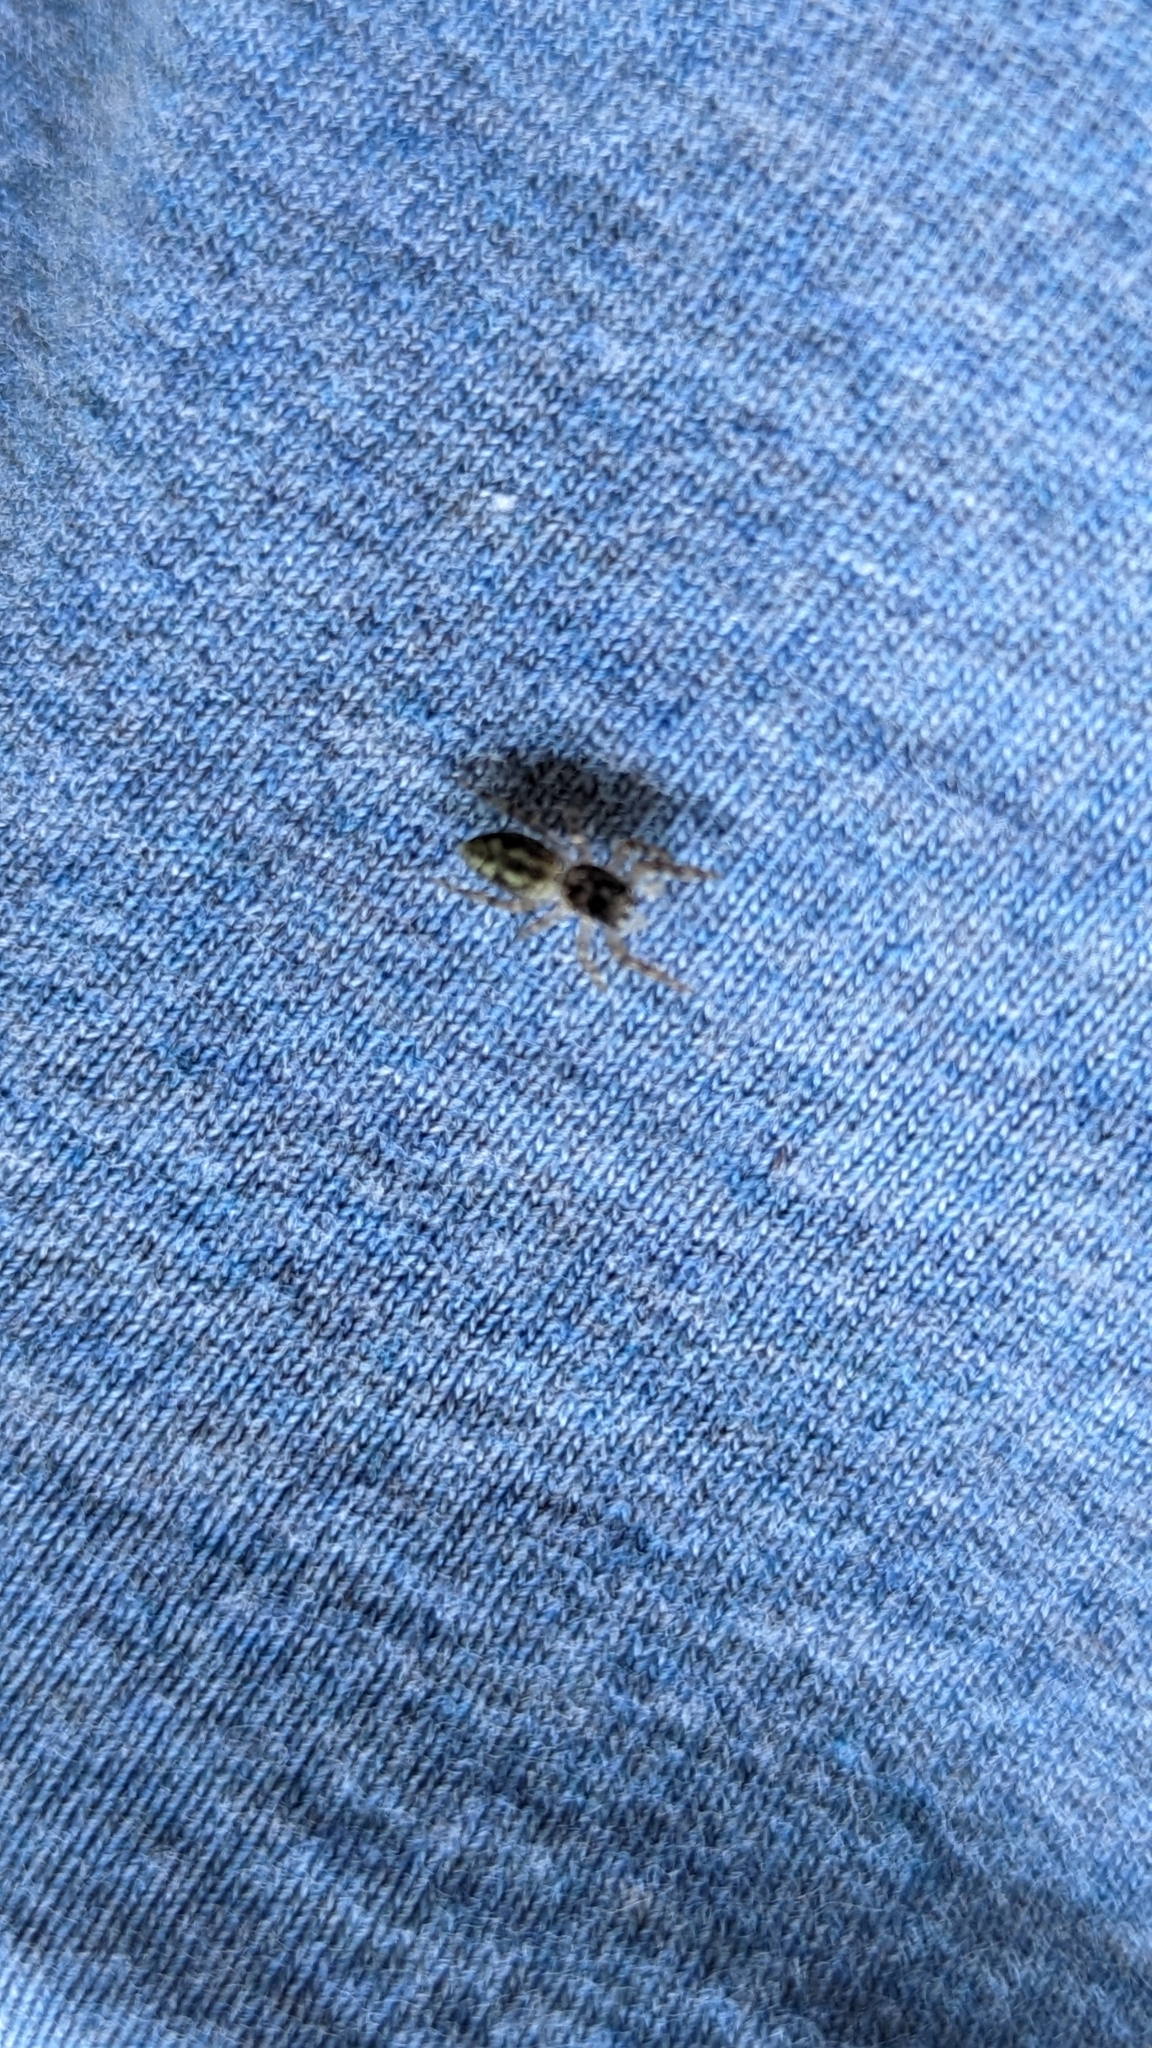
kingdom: Animalia
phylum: Arthropoda
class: Arachnida
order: Araneae
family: Salticidae
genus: Platycryptus
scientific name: Platycryptus undatus
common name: Tan jumping spider
